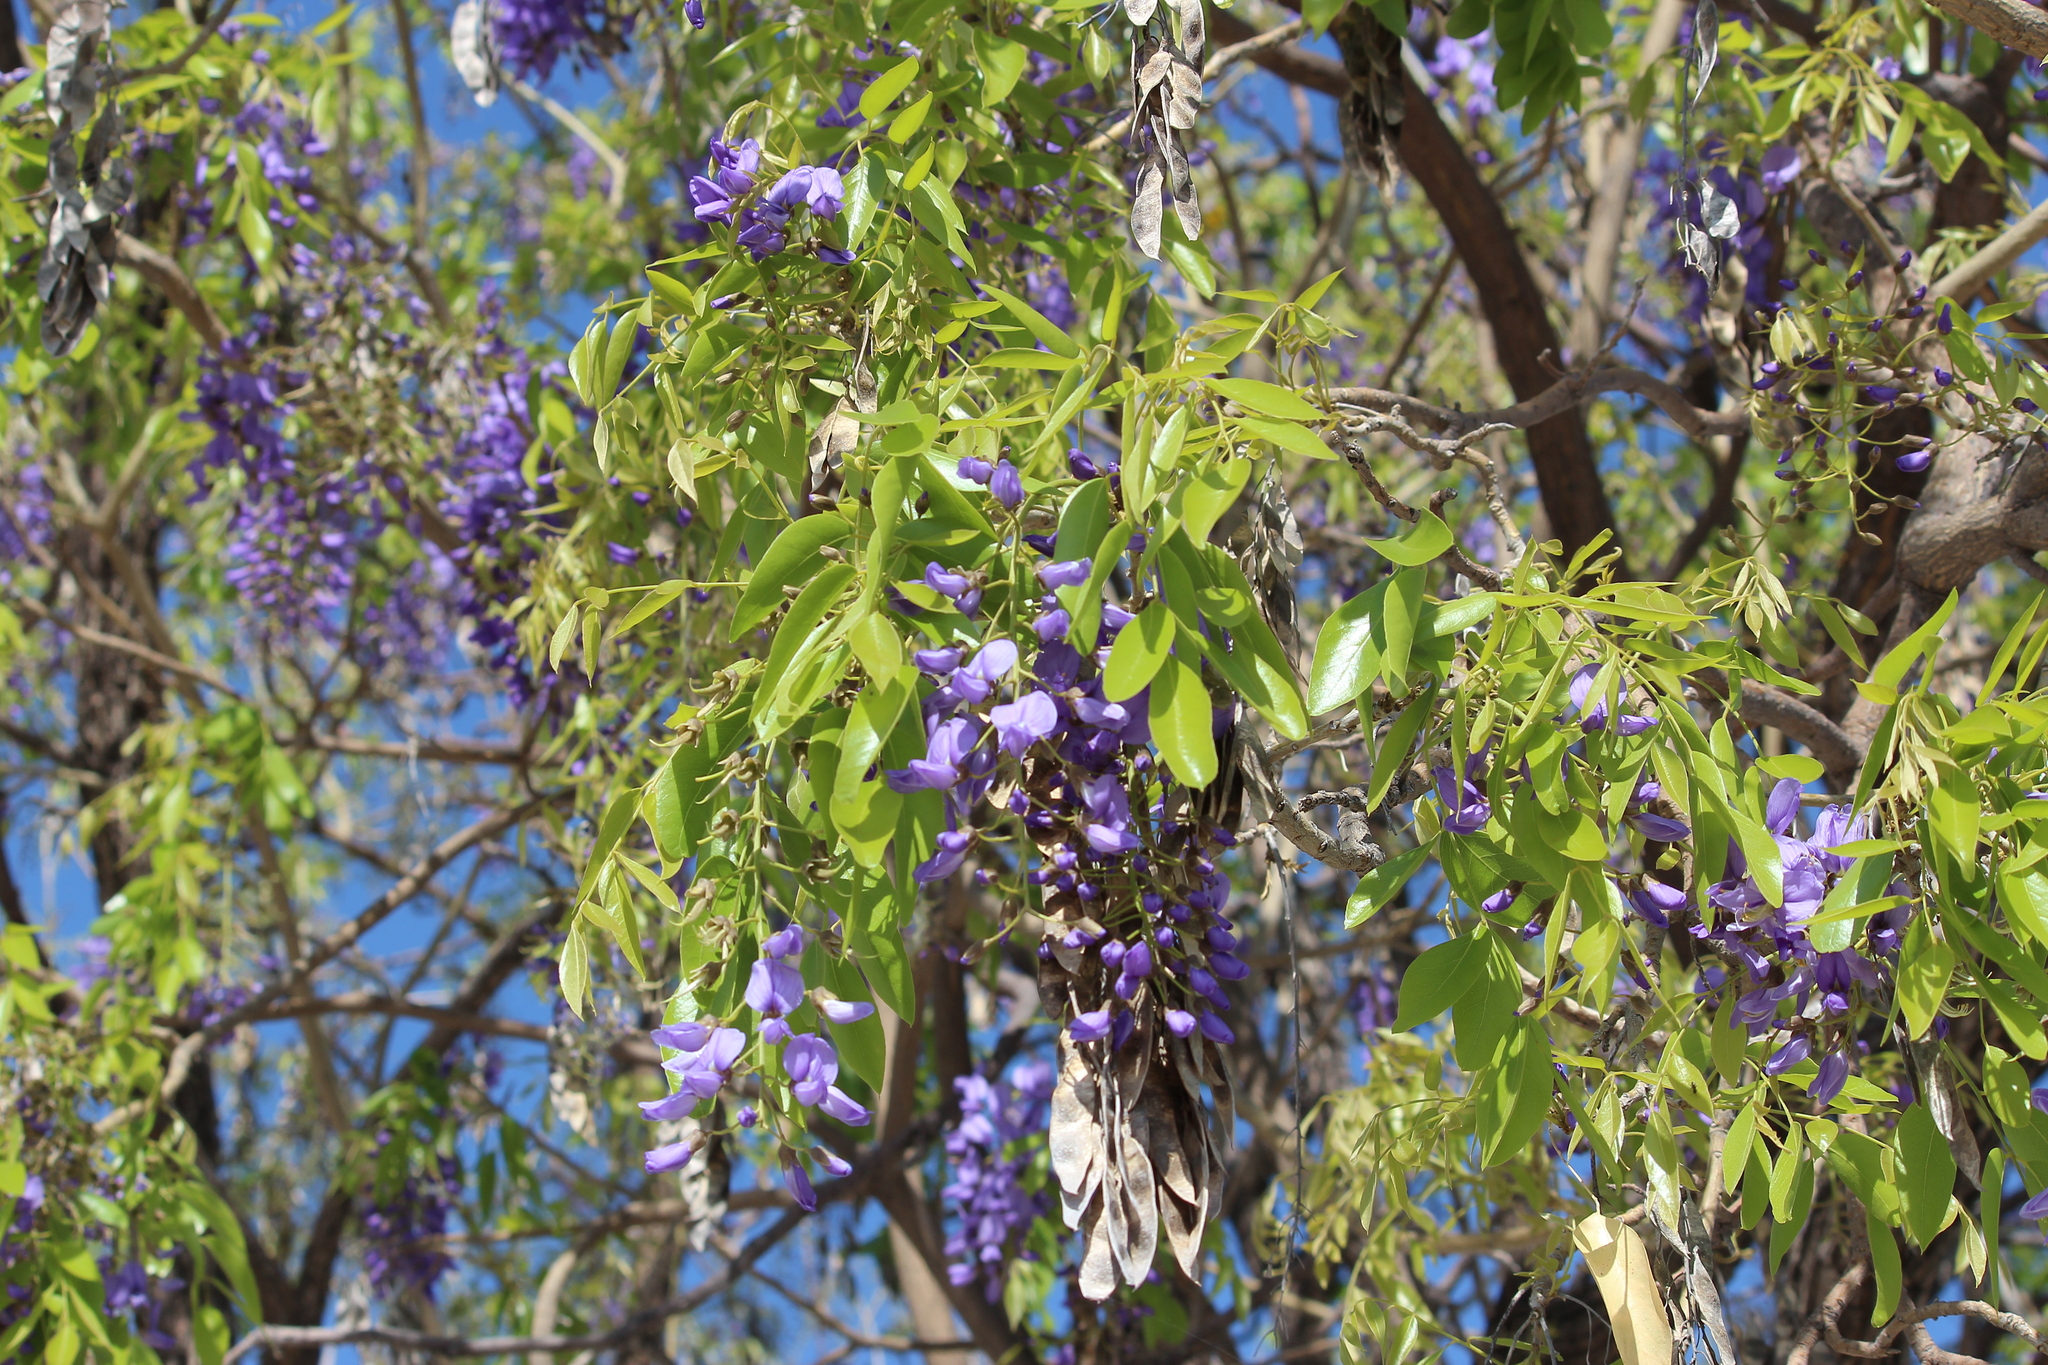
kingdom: Plantae
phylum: Tracheophyta
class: Magnoliopsida
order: Fabales
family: Fabaceae
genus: Bolusanthus
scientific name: Bolusanthus speciosus
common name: Tree wisteria
